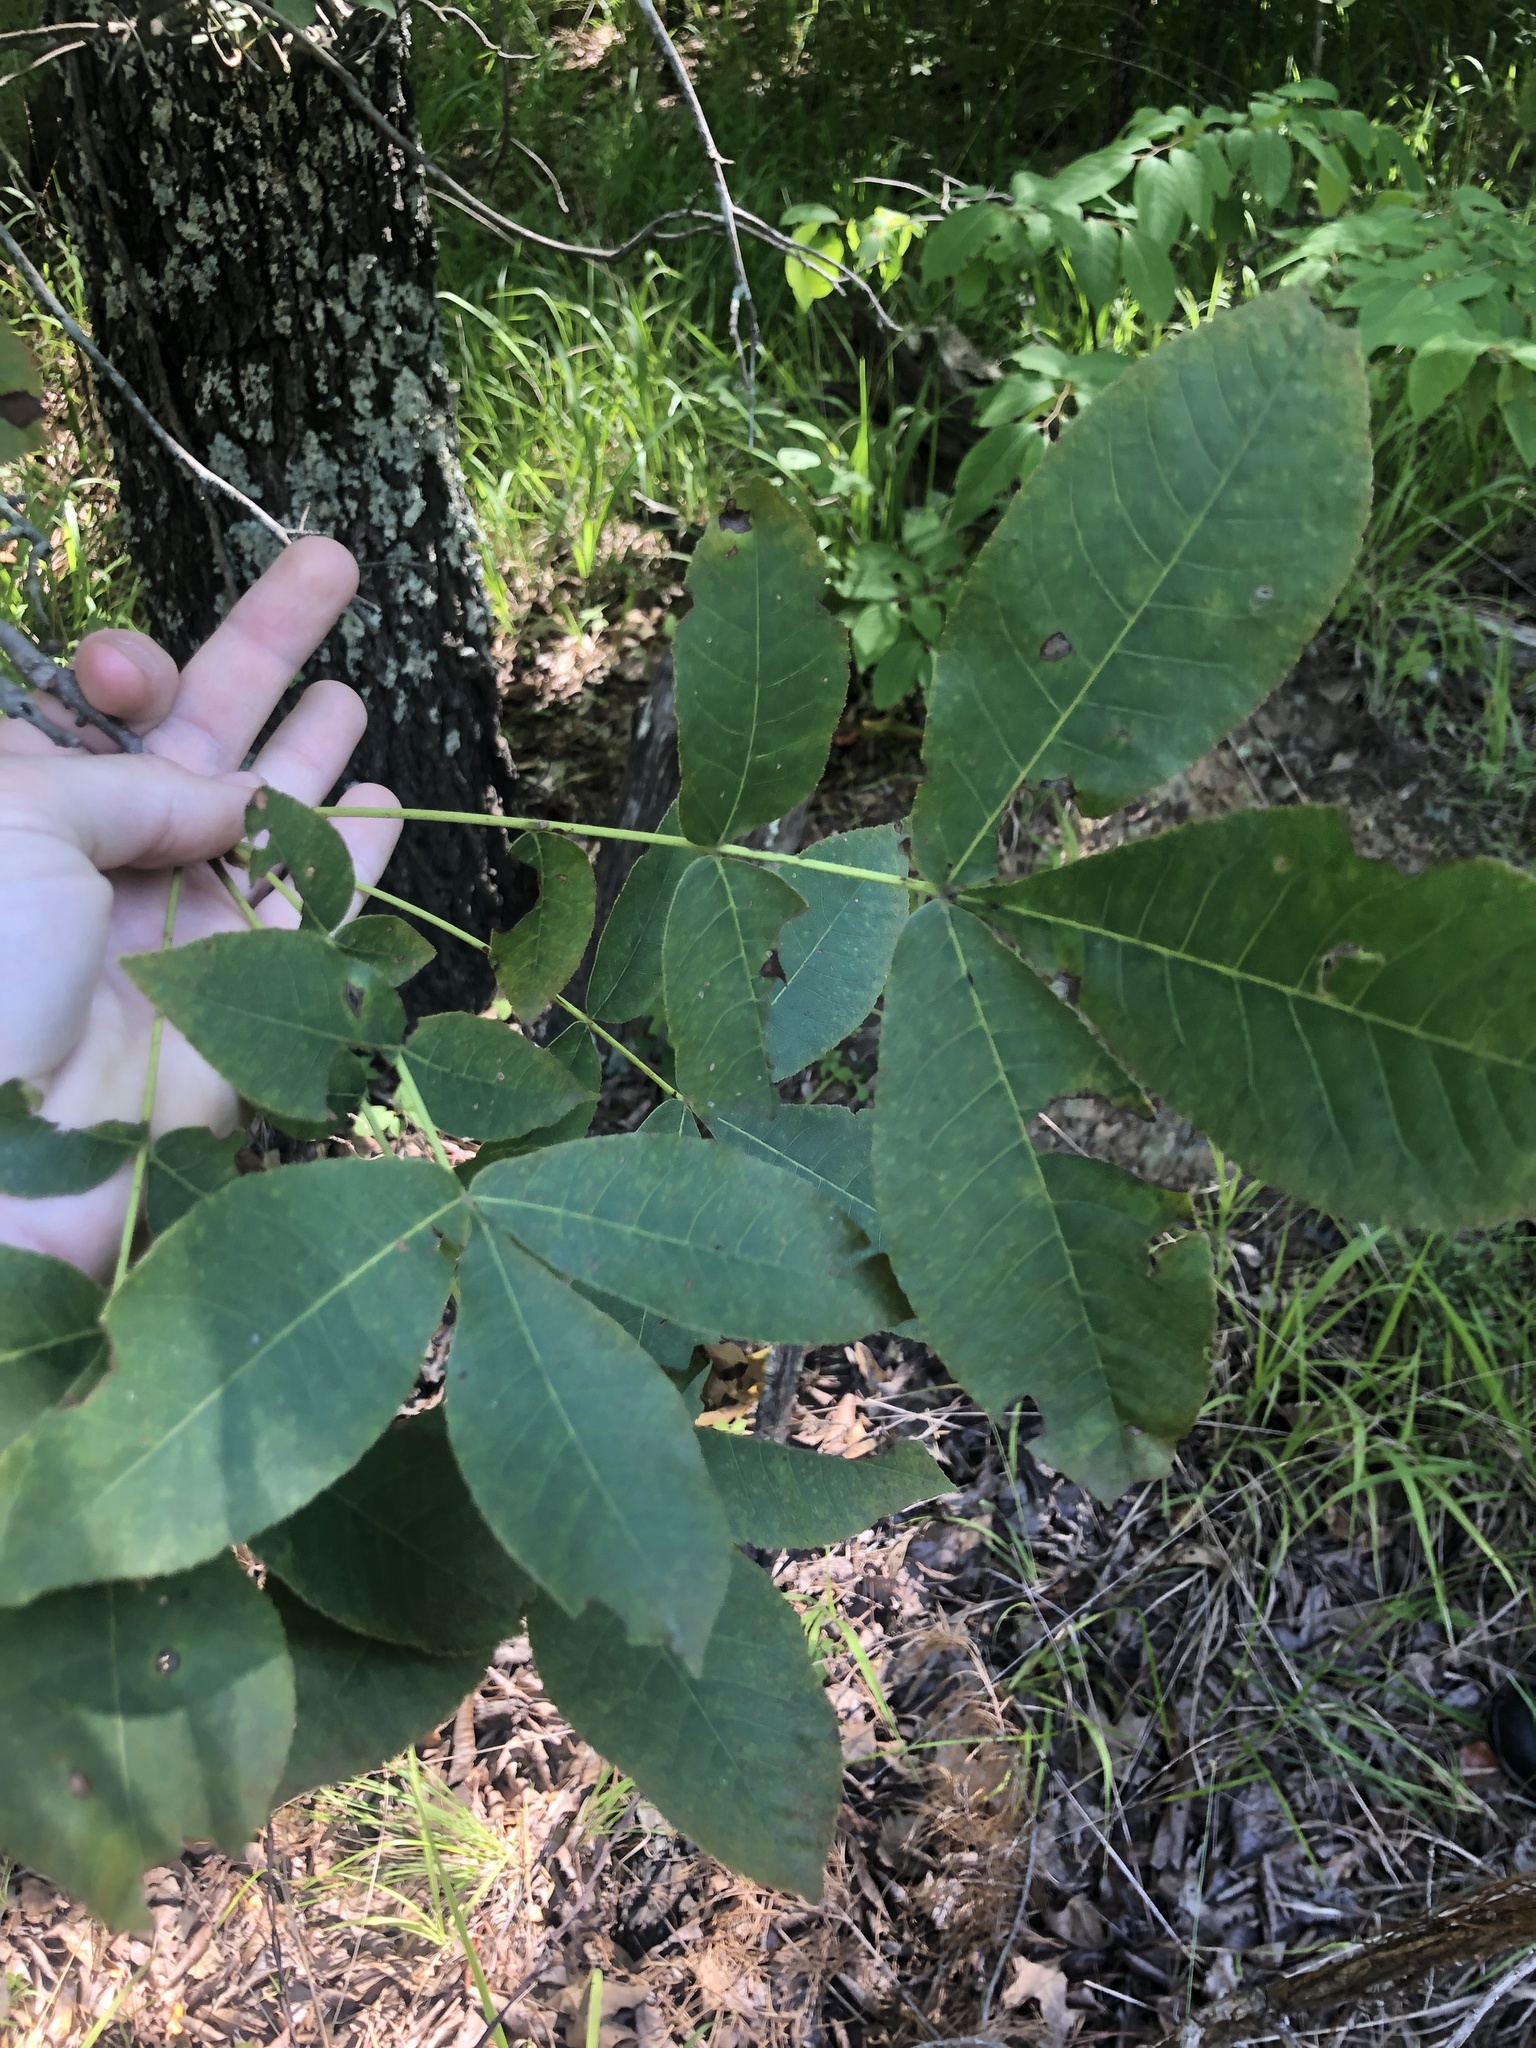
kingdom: Plantae
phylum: Tracheophyta
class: Magnoliopsida
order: Fagales
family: Juglandaceae
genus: Carya
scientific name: Carya pallida
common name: Sand hickory
